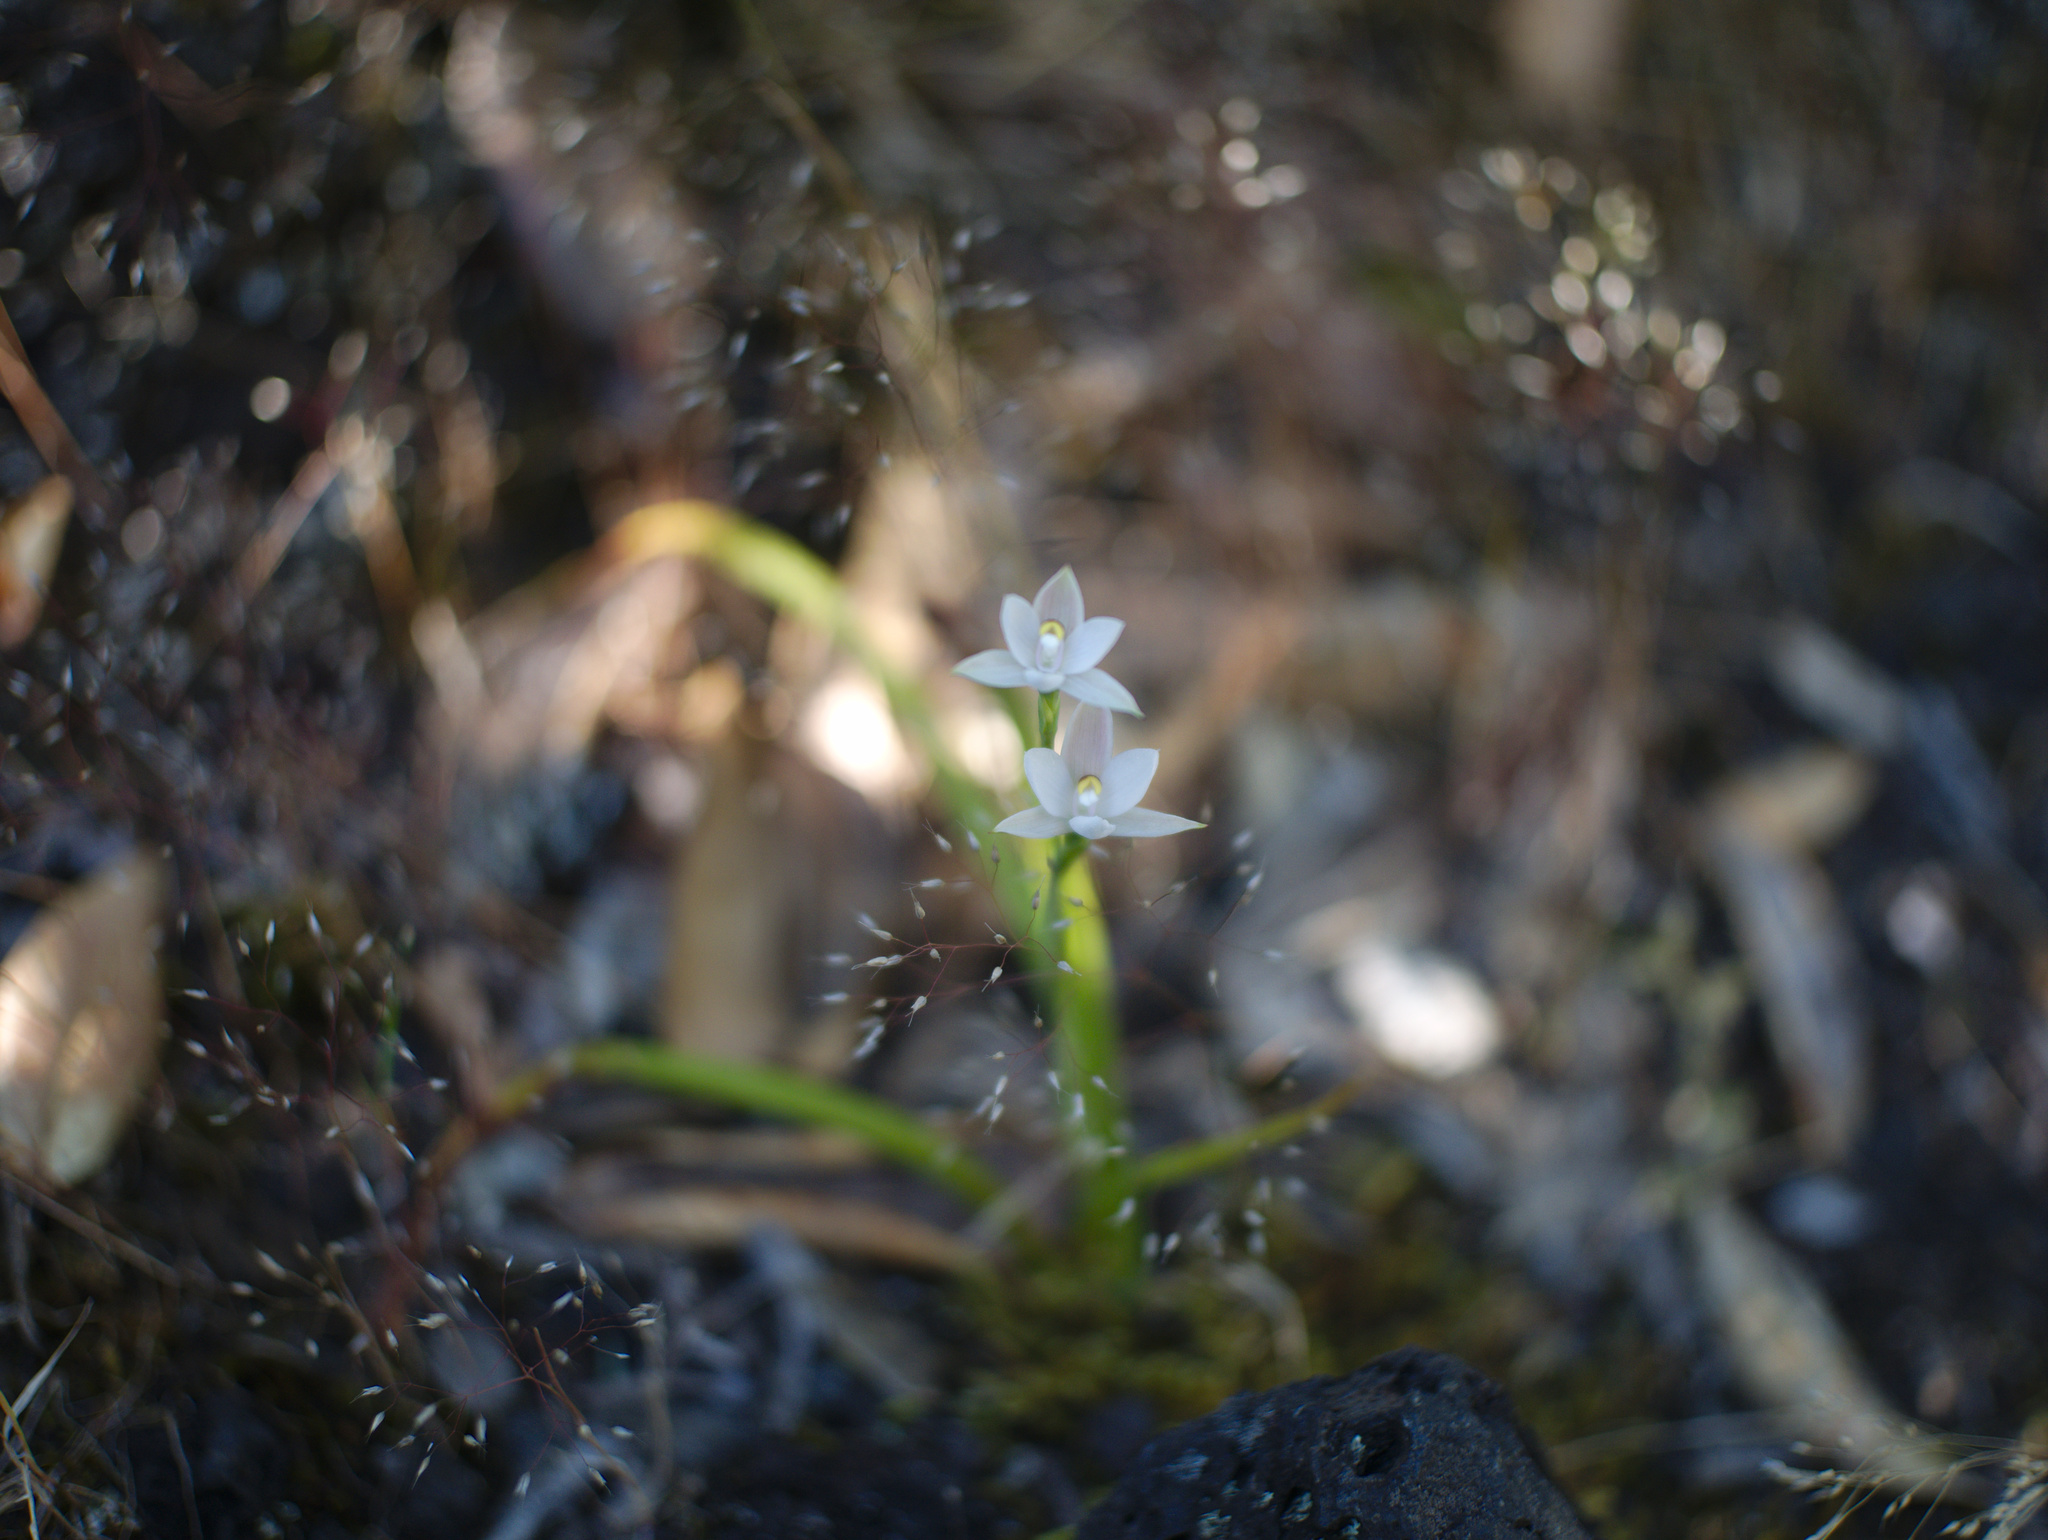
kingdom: Plantae
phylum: Tracheophyta
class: Liliopsida
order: Asparagales
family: Orchidaceae
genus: Thelymitra
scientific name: Thelymitra longifolia
